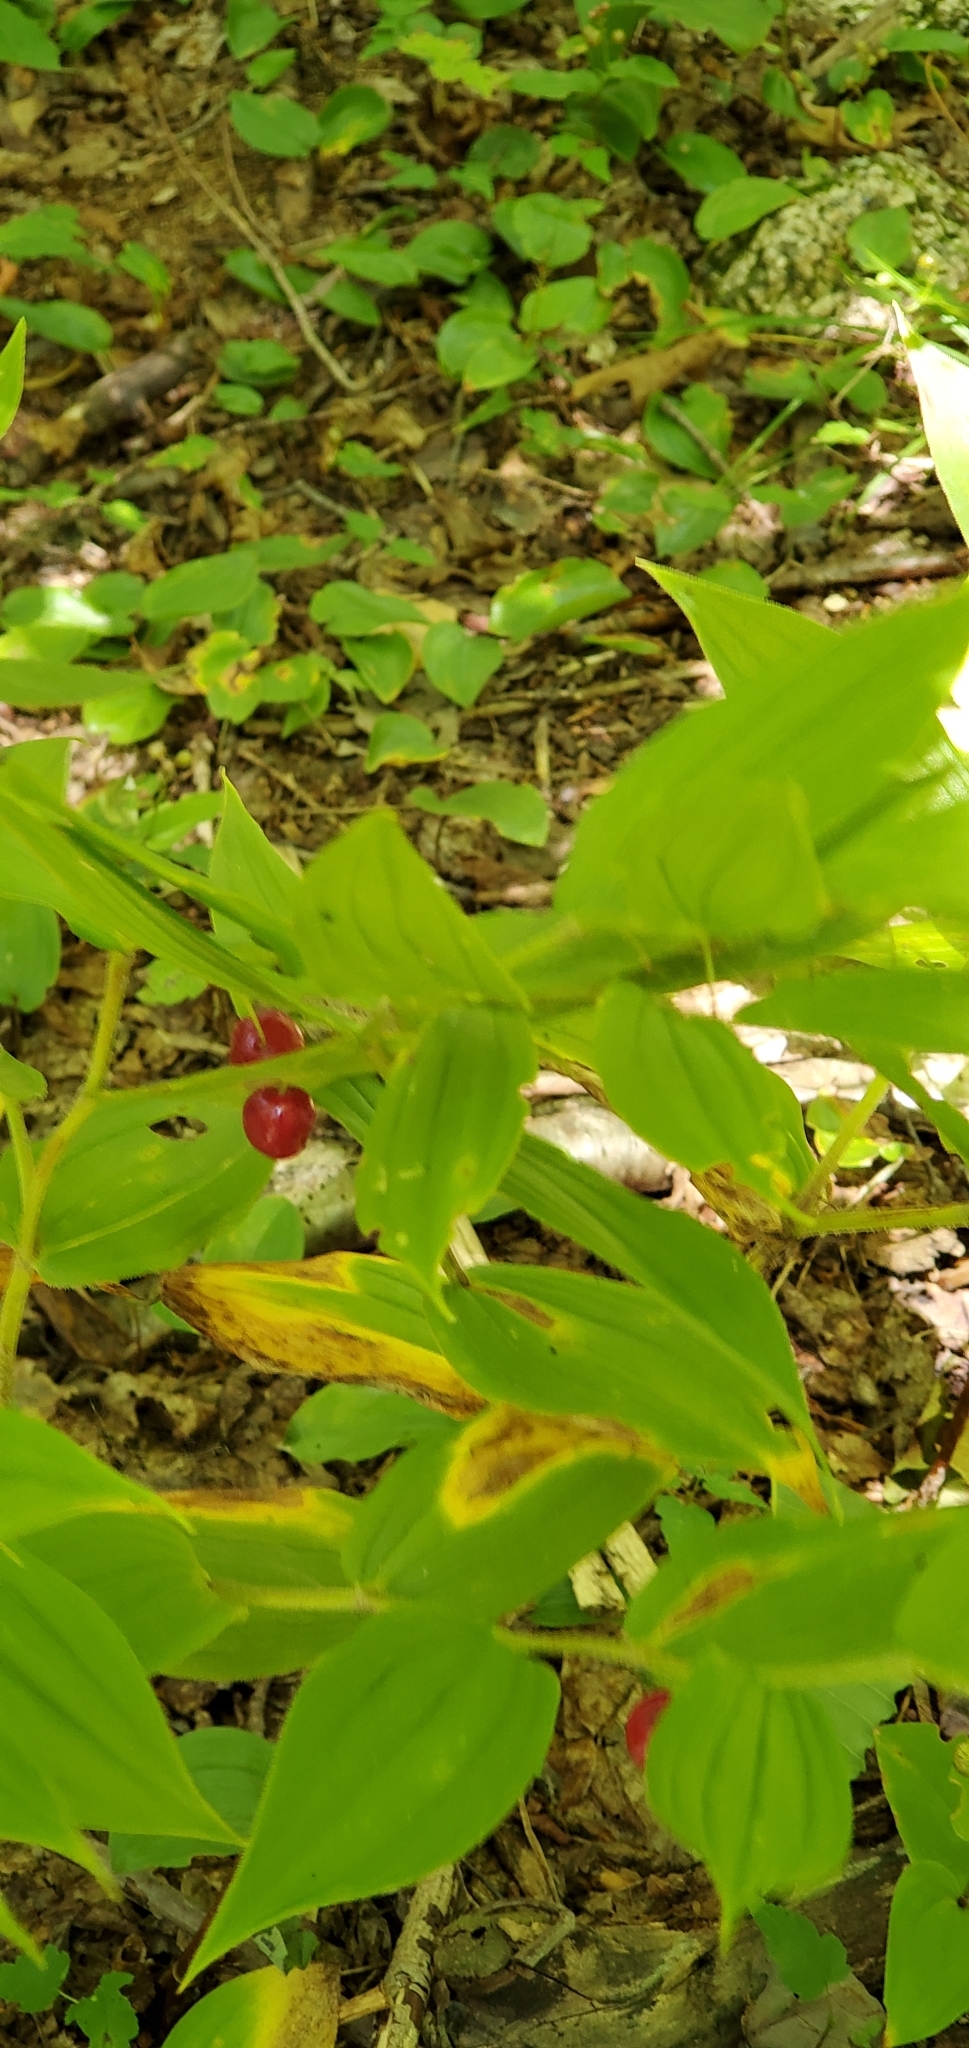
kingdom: Plantae
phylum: Tracheophyta
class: Liliopsida
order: Liliales
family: Liliaceae
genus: Streptopus
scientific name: Streptopus lanceolatus
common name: Rose mandarin
